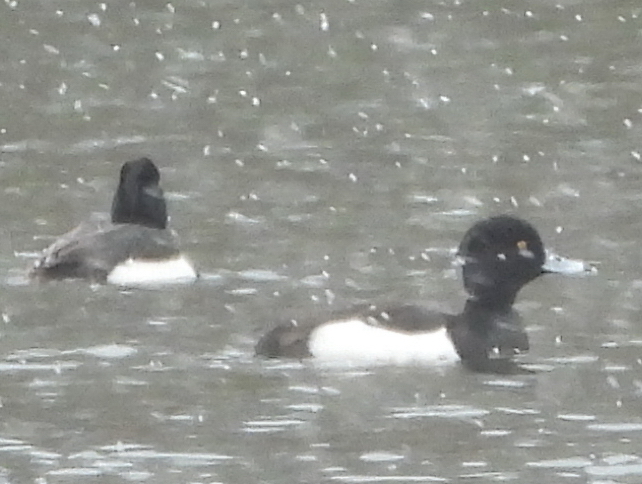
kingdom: Animalia
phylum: Chordata
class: Aves
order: Anseriformes
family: Anatidae
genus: Aythya
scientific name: Aythya fuligula
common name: Tufted duck
